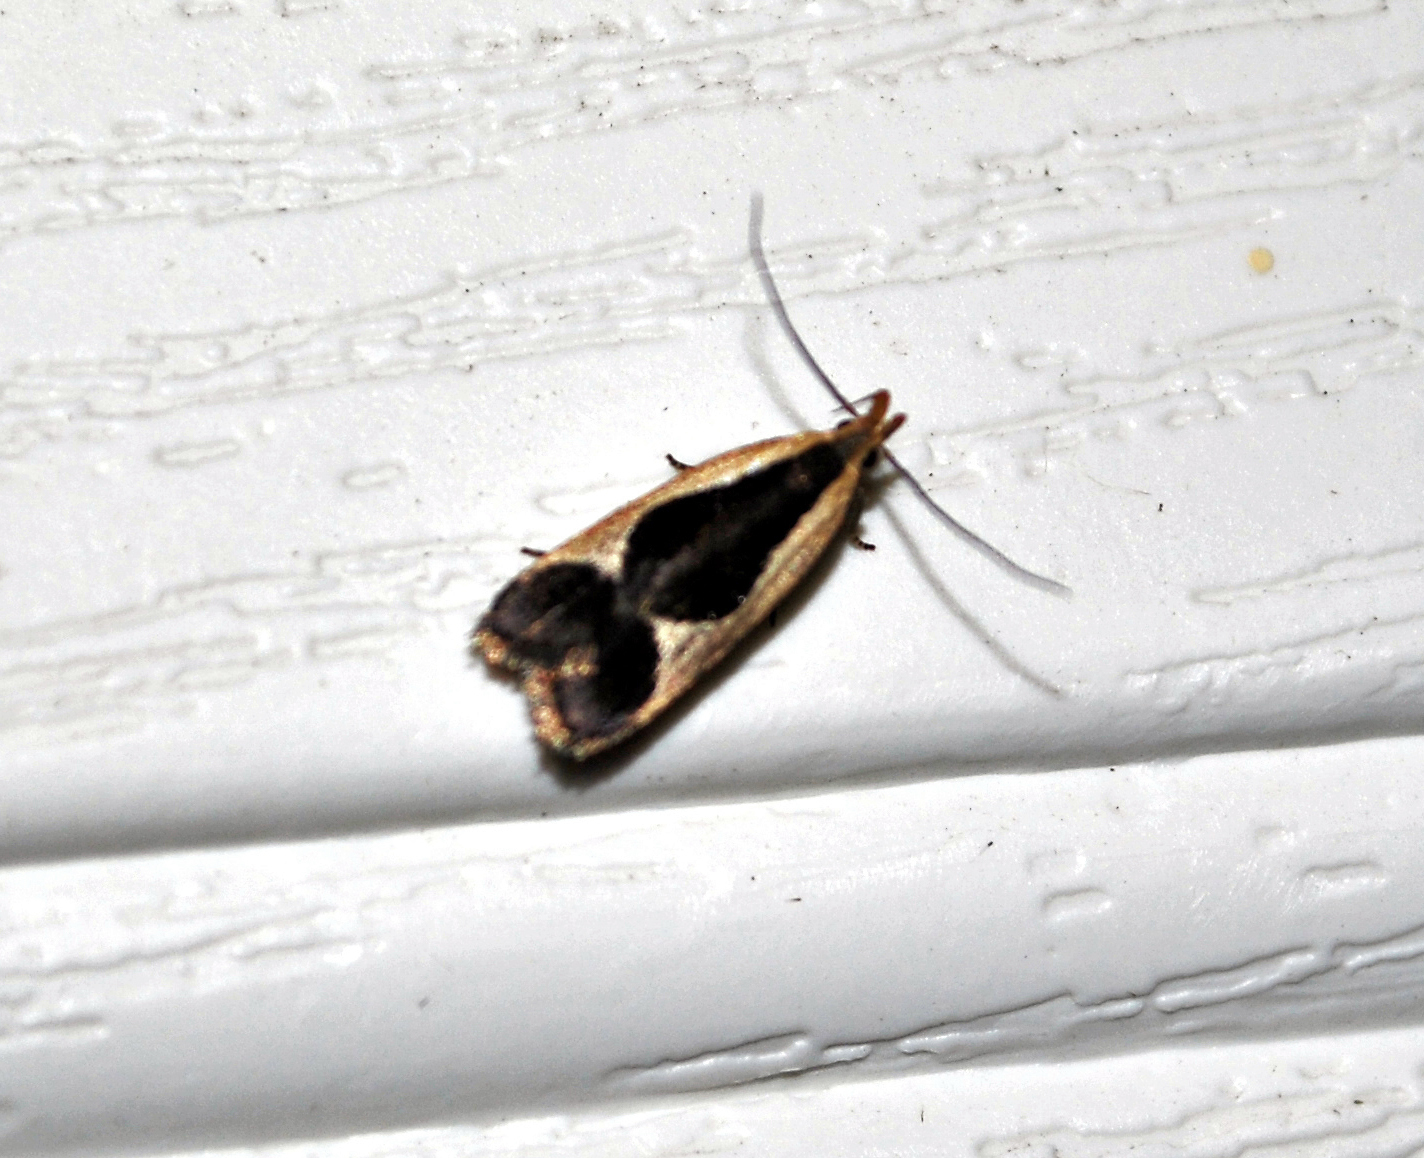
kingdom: Animalia
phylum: Arthropoda
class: Insecta
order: Lepidoptera
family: Gelechiidae
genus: Dichomeris
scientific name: Dichomeris flavocostella
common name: Cream-edged dichomeris moth
